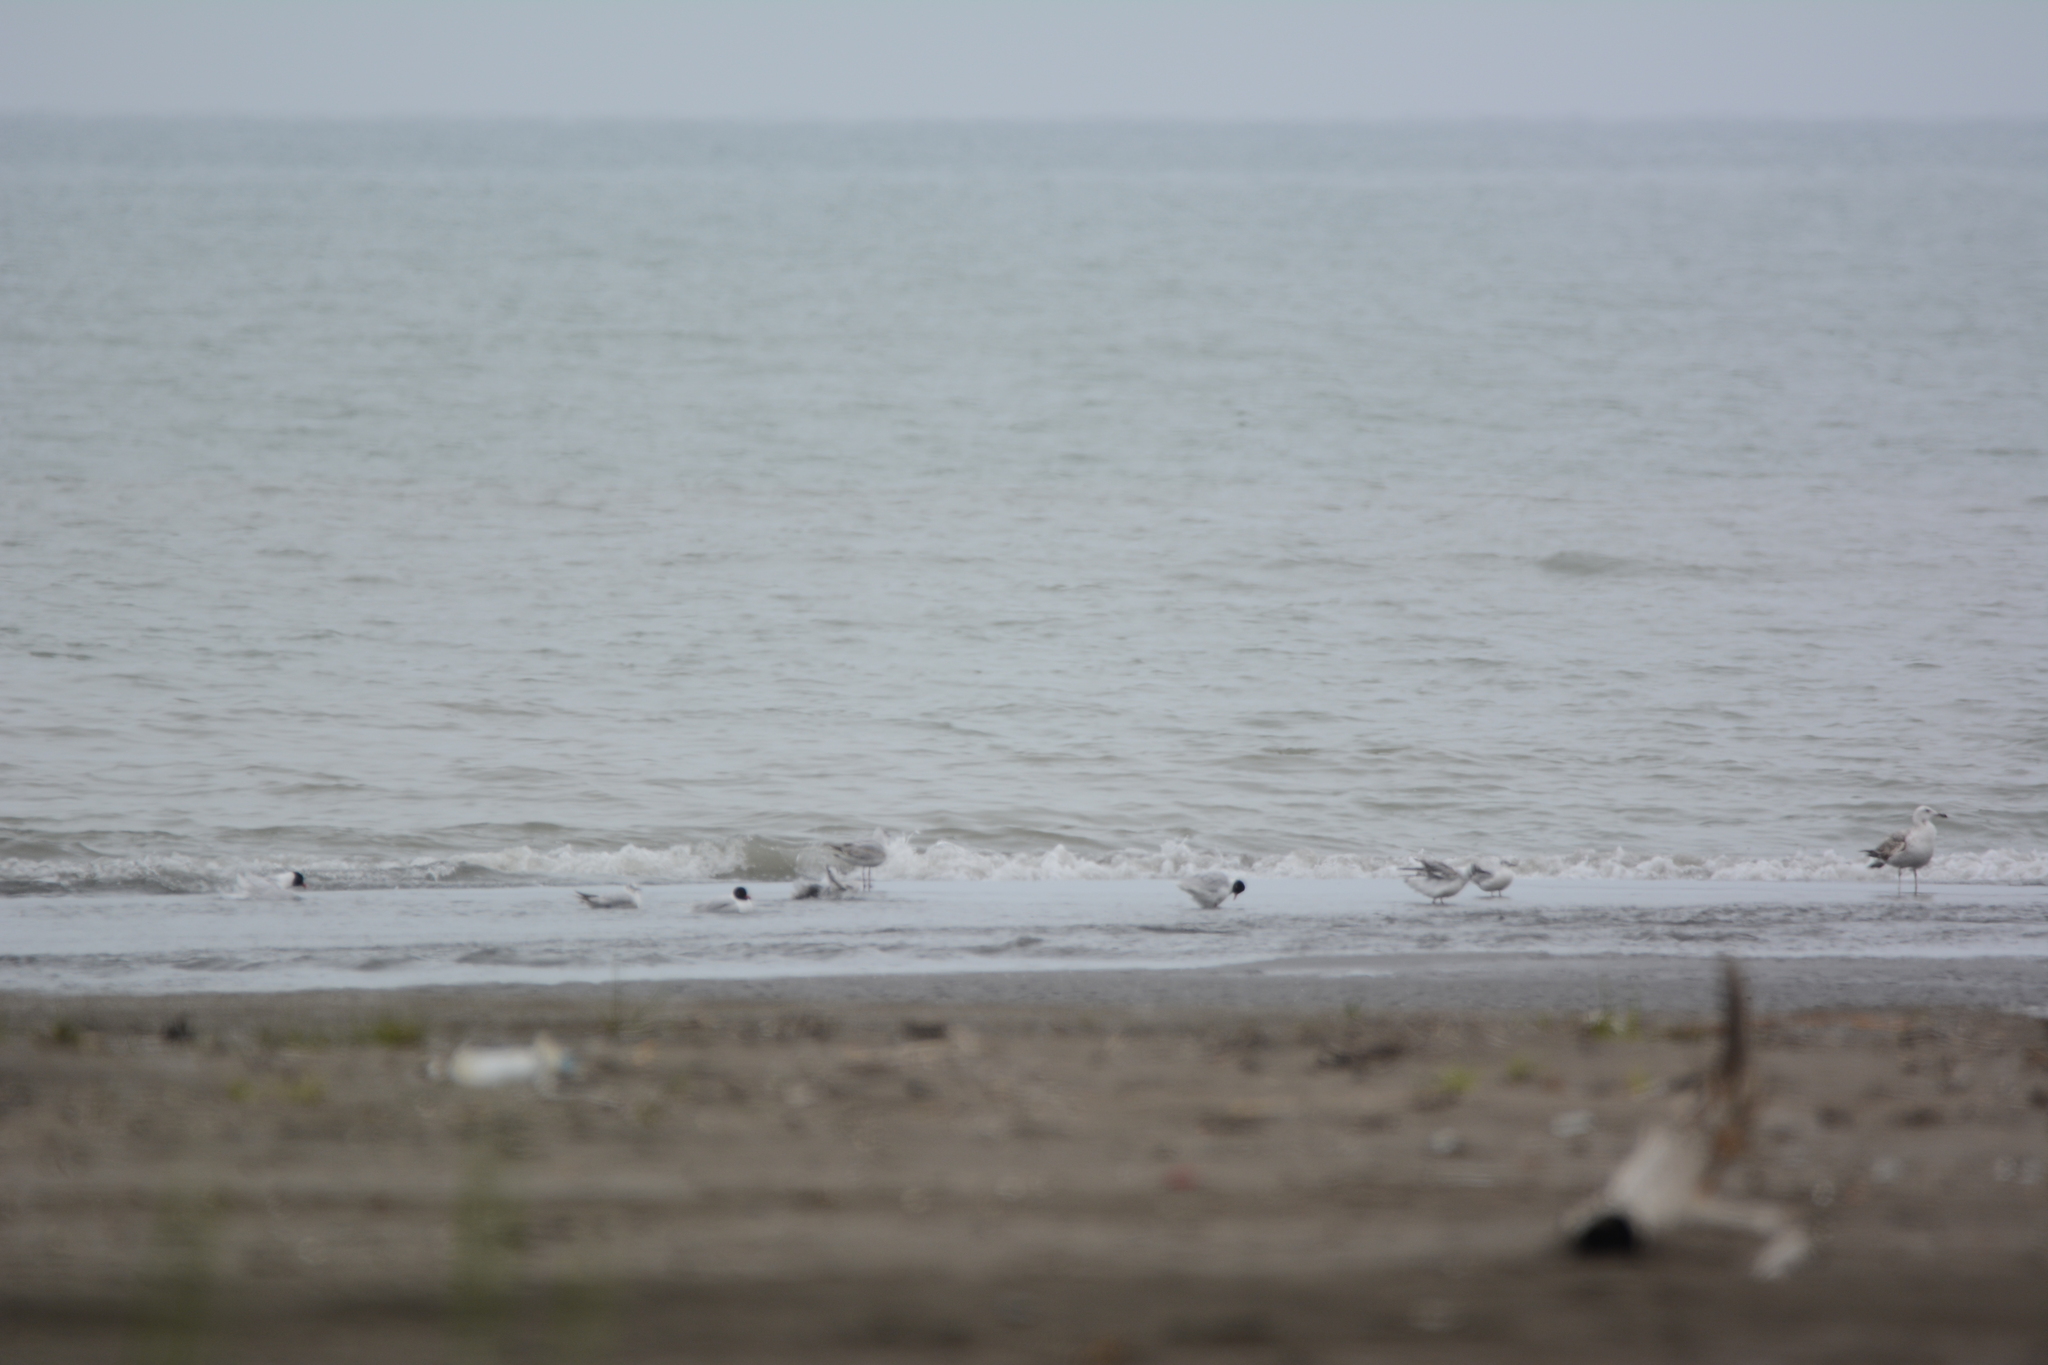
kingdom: Animalia
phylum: Chordata
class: Aves
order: Charadriiformes
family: Laridae
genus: Ichthyaetus
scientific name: Ichthyaetus melanocephalus
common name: Mediterranean gull
